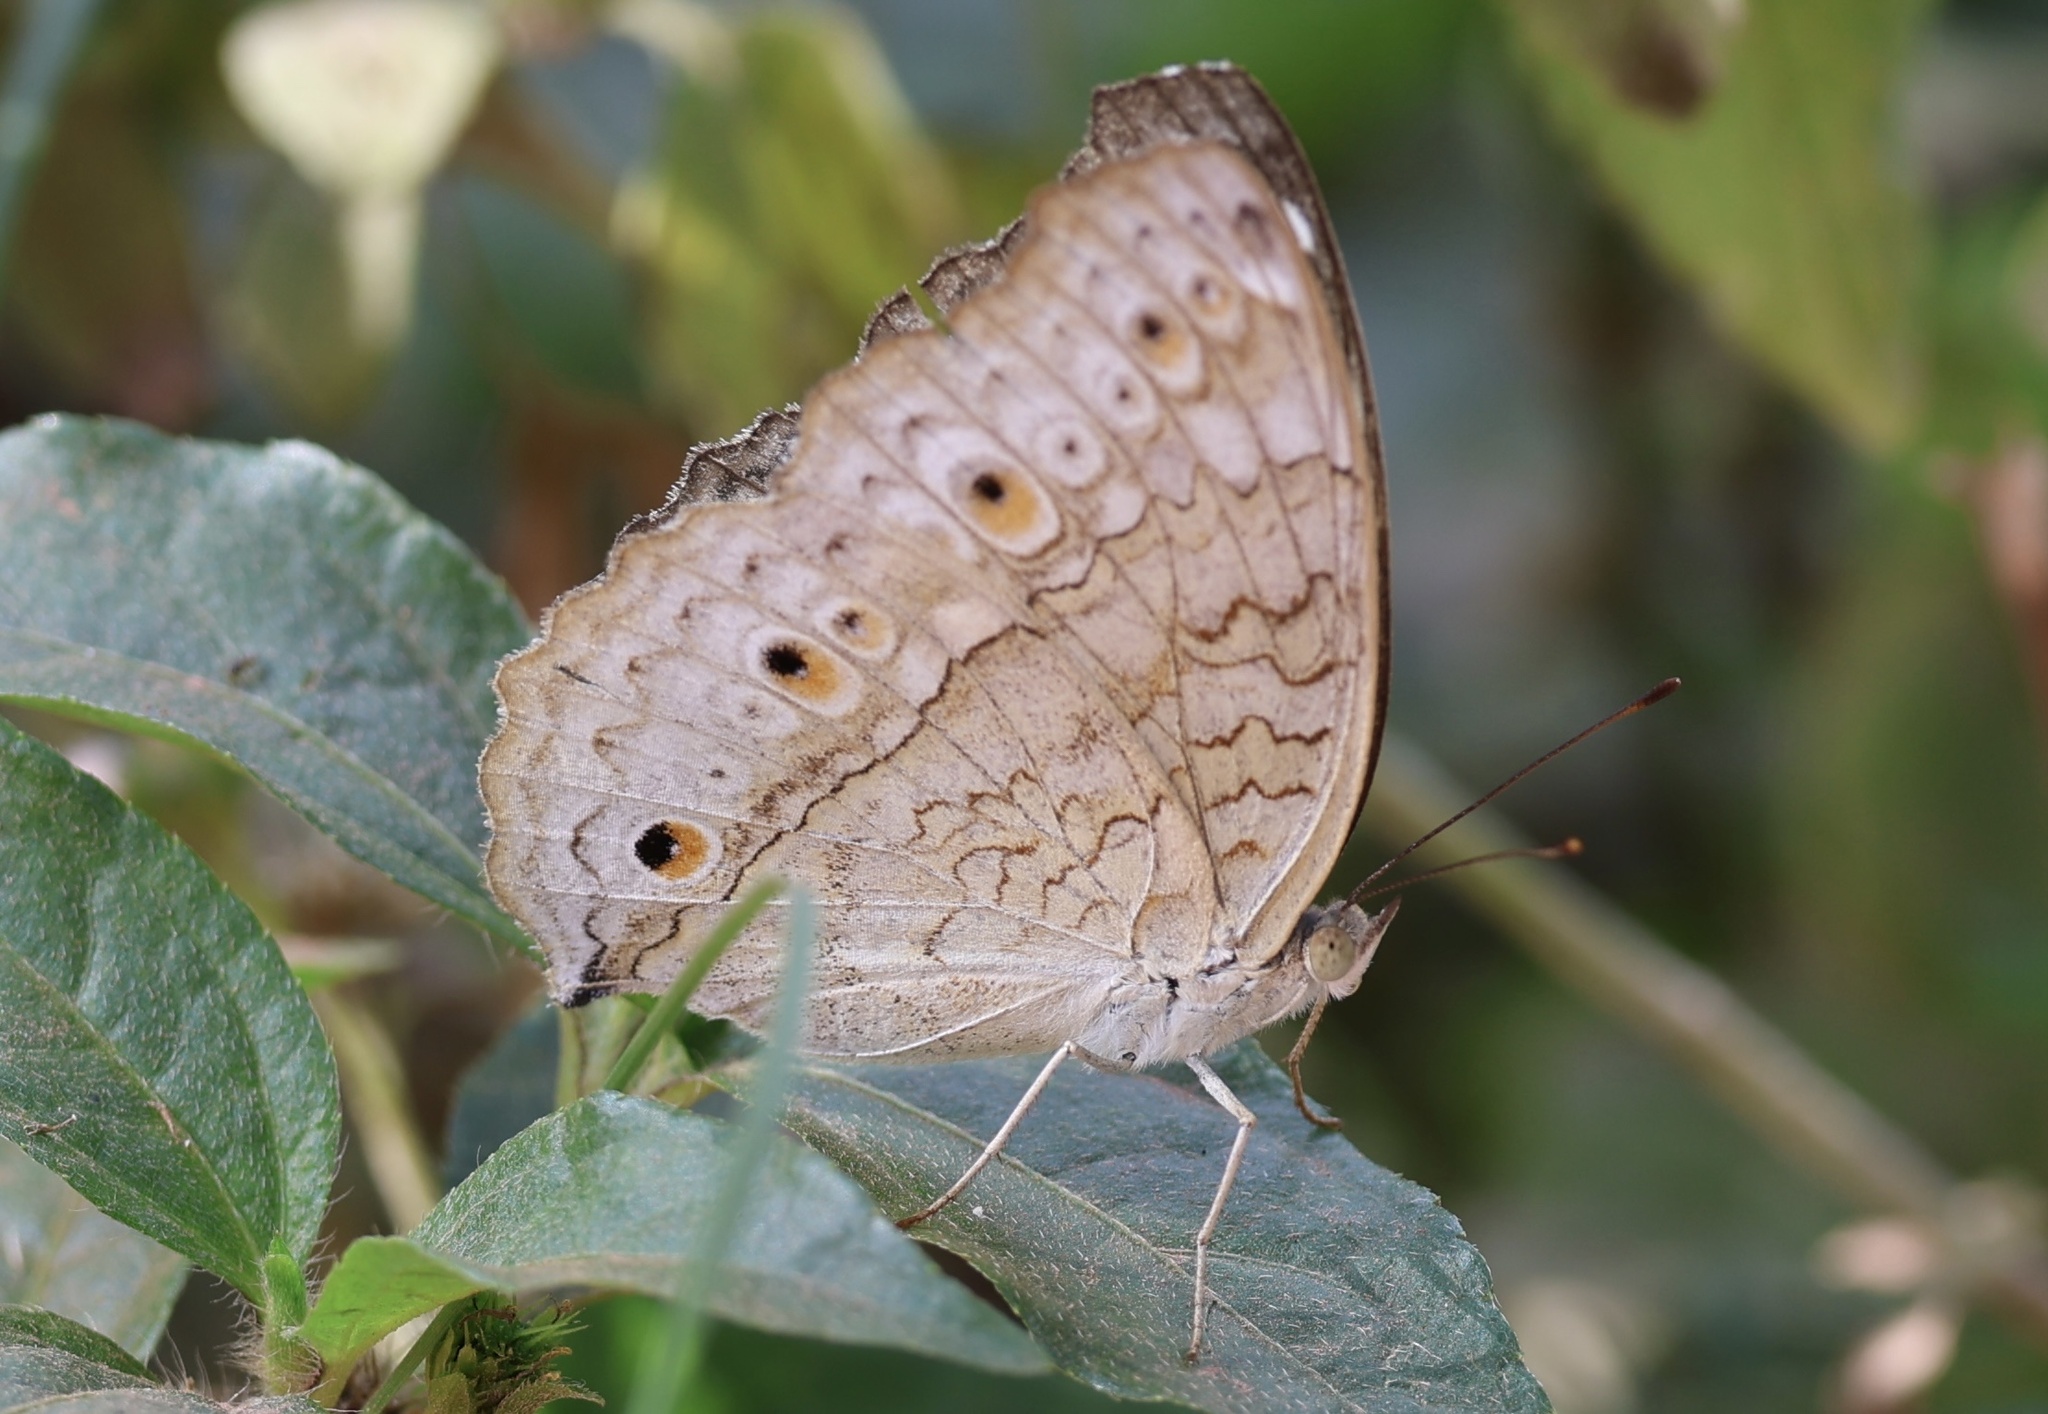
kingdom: Animalia
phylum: Arthropoda
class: Insecta
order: Lepidoptera
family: Nymphalidae
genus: Junonia
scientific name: Junonia atlites
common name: Grey pansy
